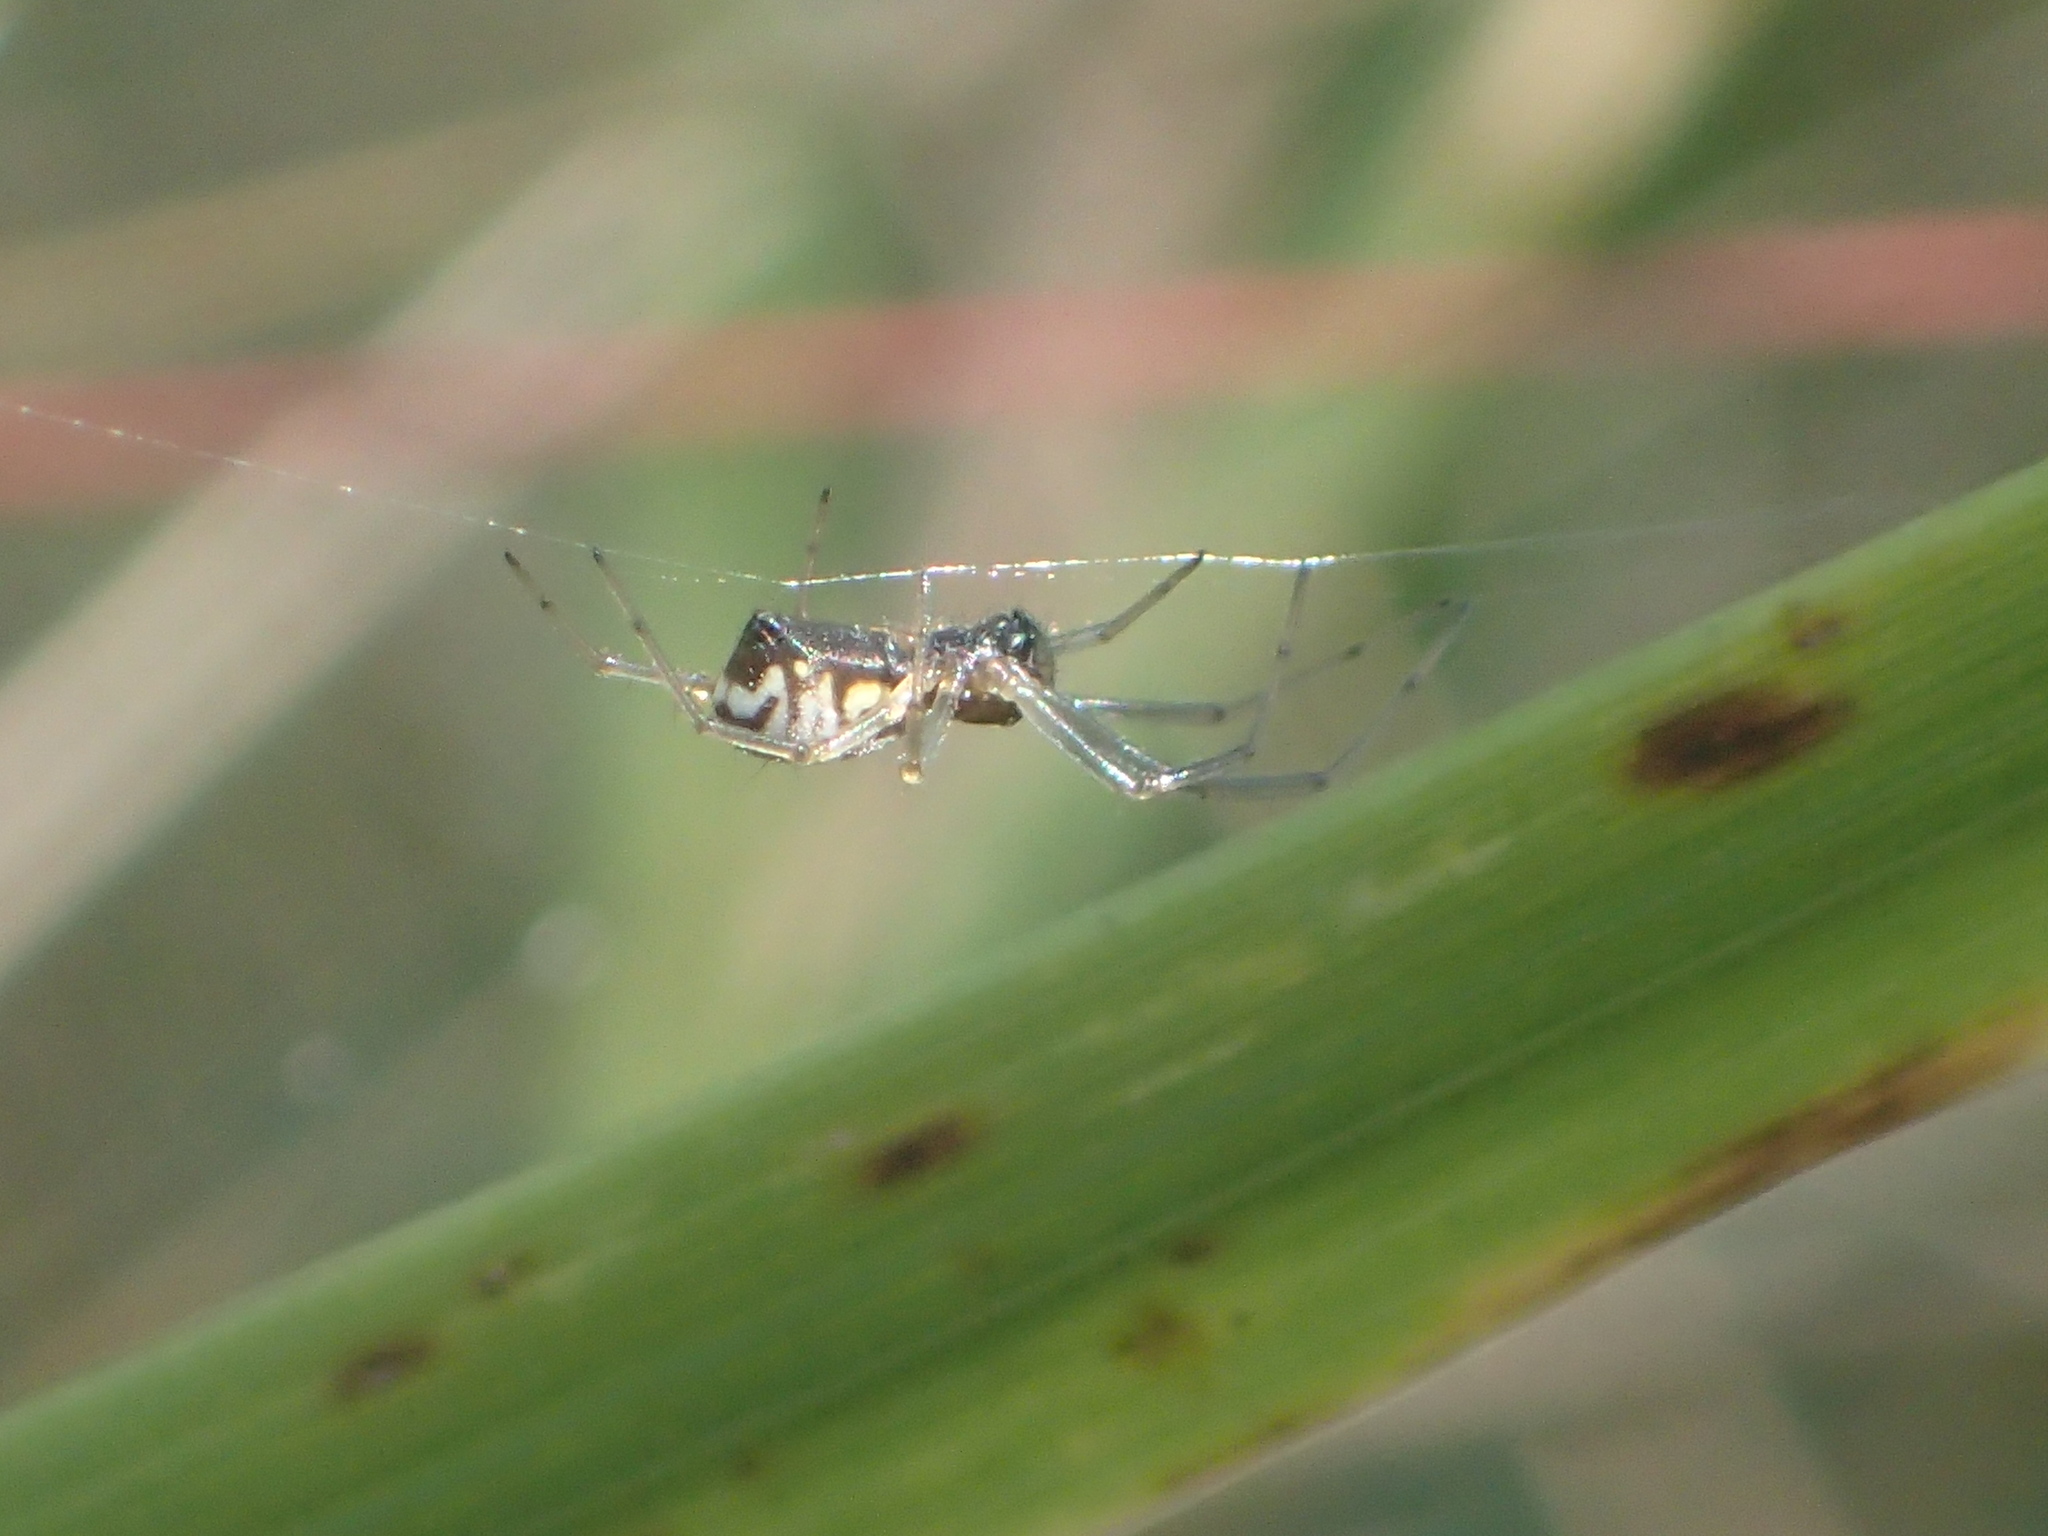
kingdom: Animalia
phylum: Arthropoda
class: Arachnida
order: Araneae
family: Linyphiidae
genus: Frontinella
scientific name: Frontinella pyramitela
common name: Bowl-and-doily spider
